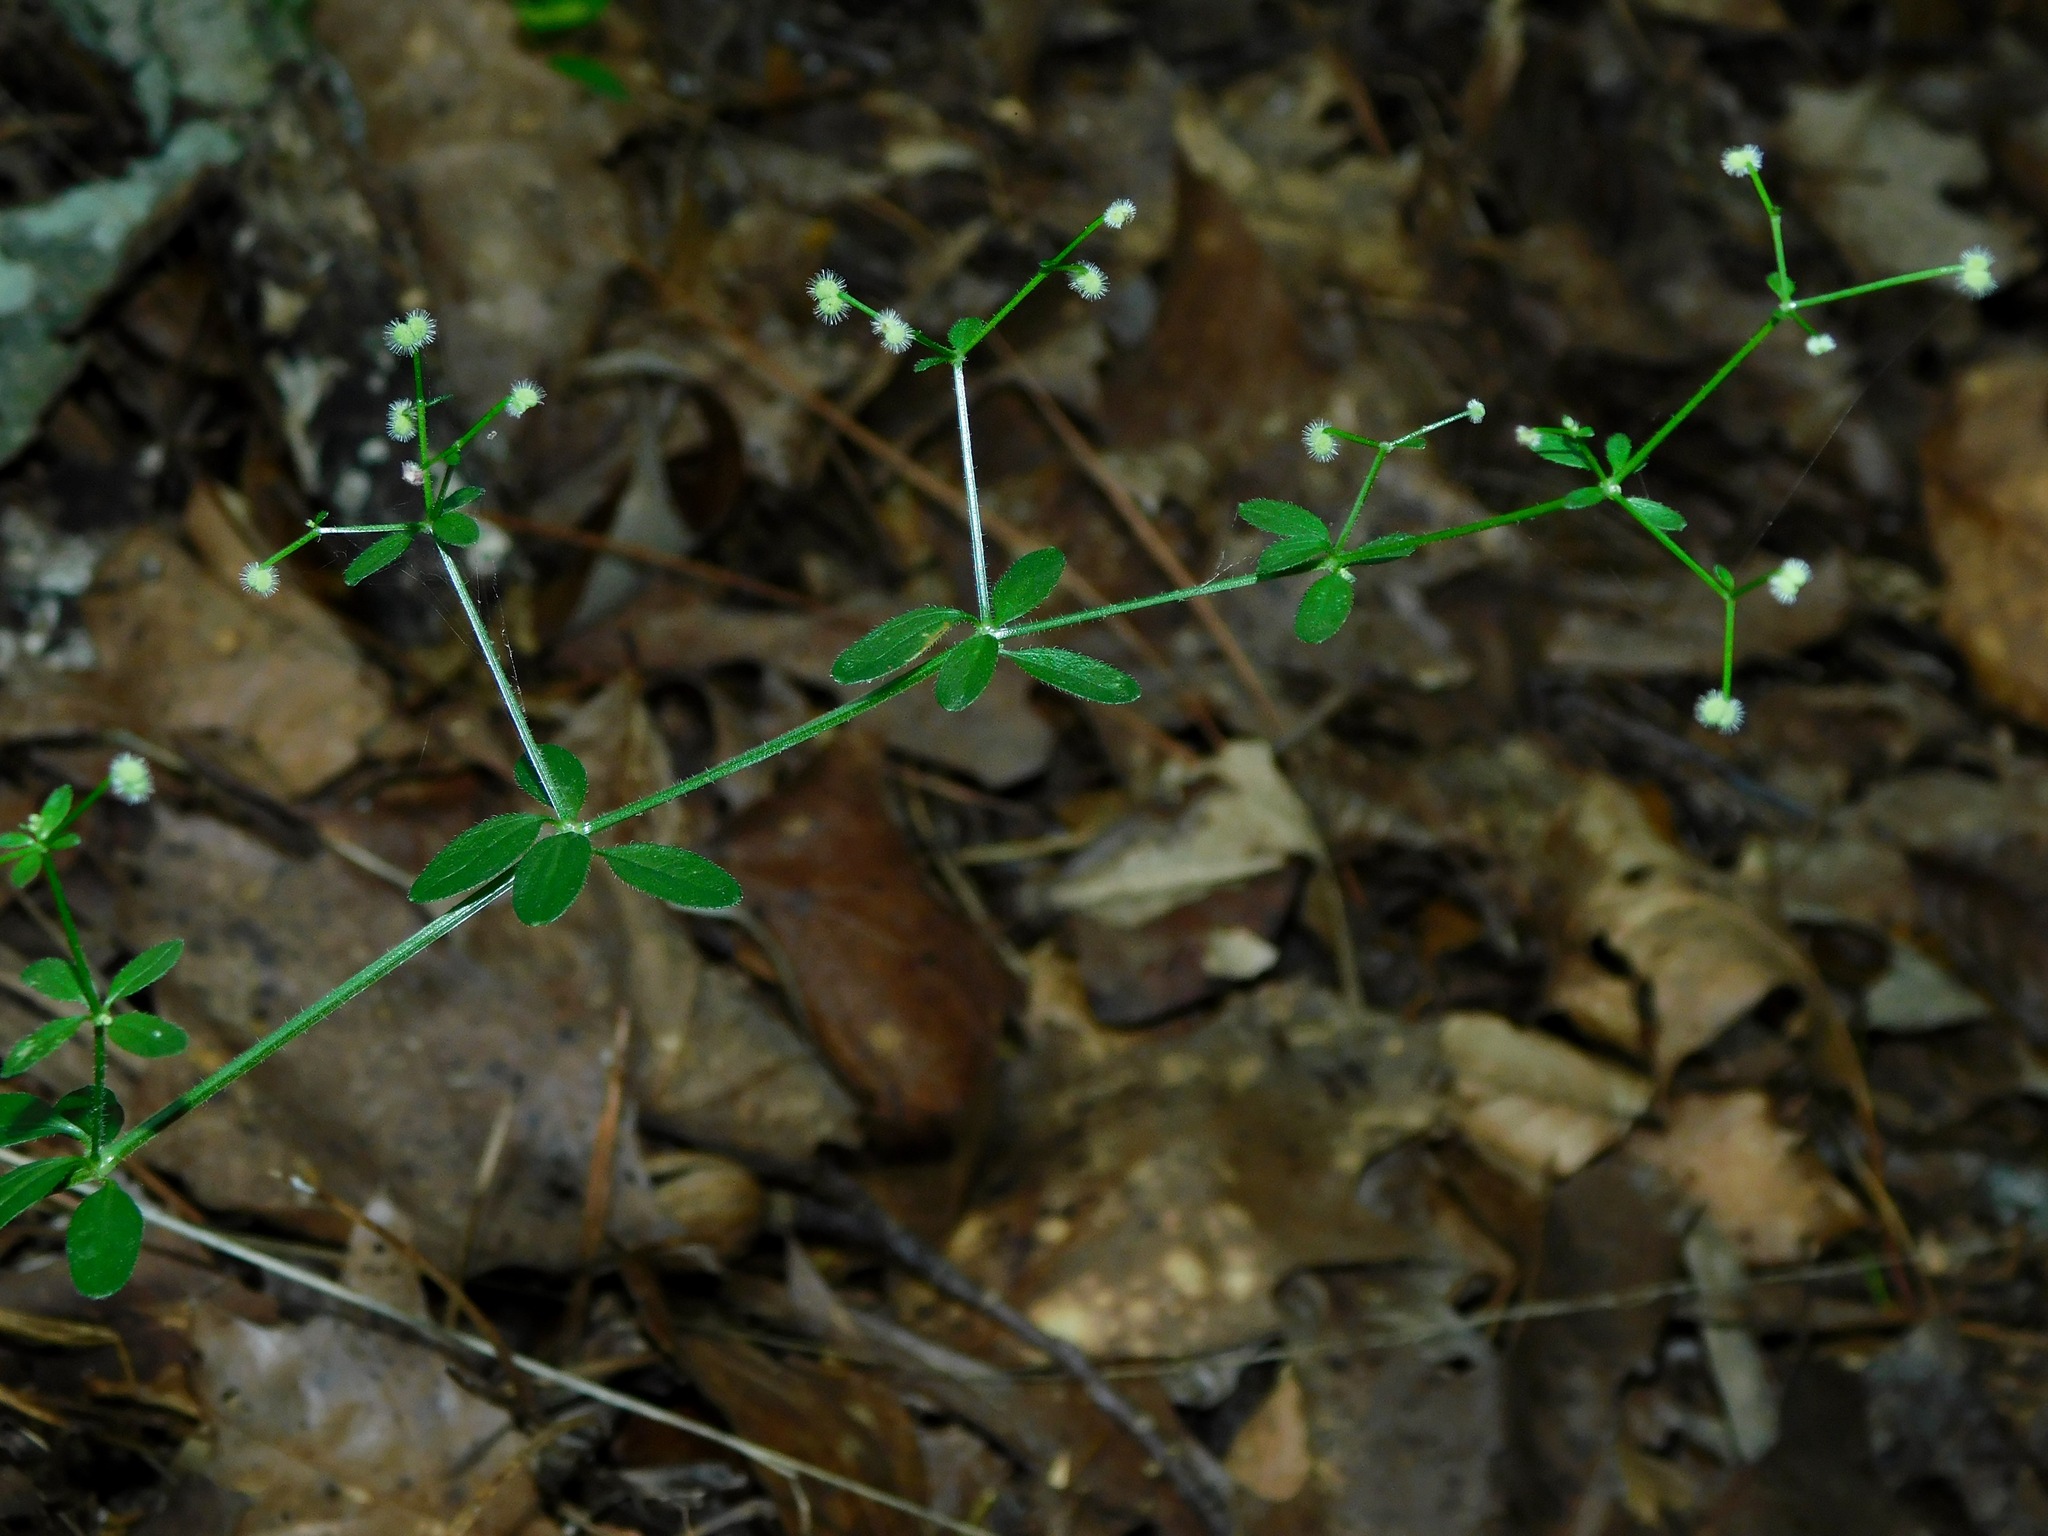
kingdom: Plantae
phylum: Tracheophyta
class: Magnoliopsida
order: Gentianales
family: Rubiaceae
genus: Galium
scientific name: Galium pilosum
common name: Hairy bedstraw
